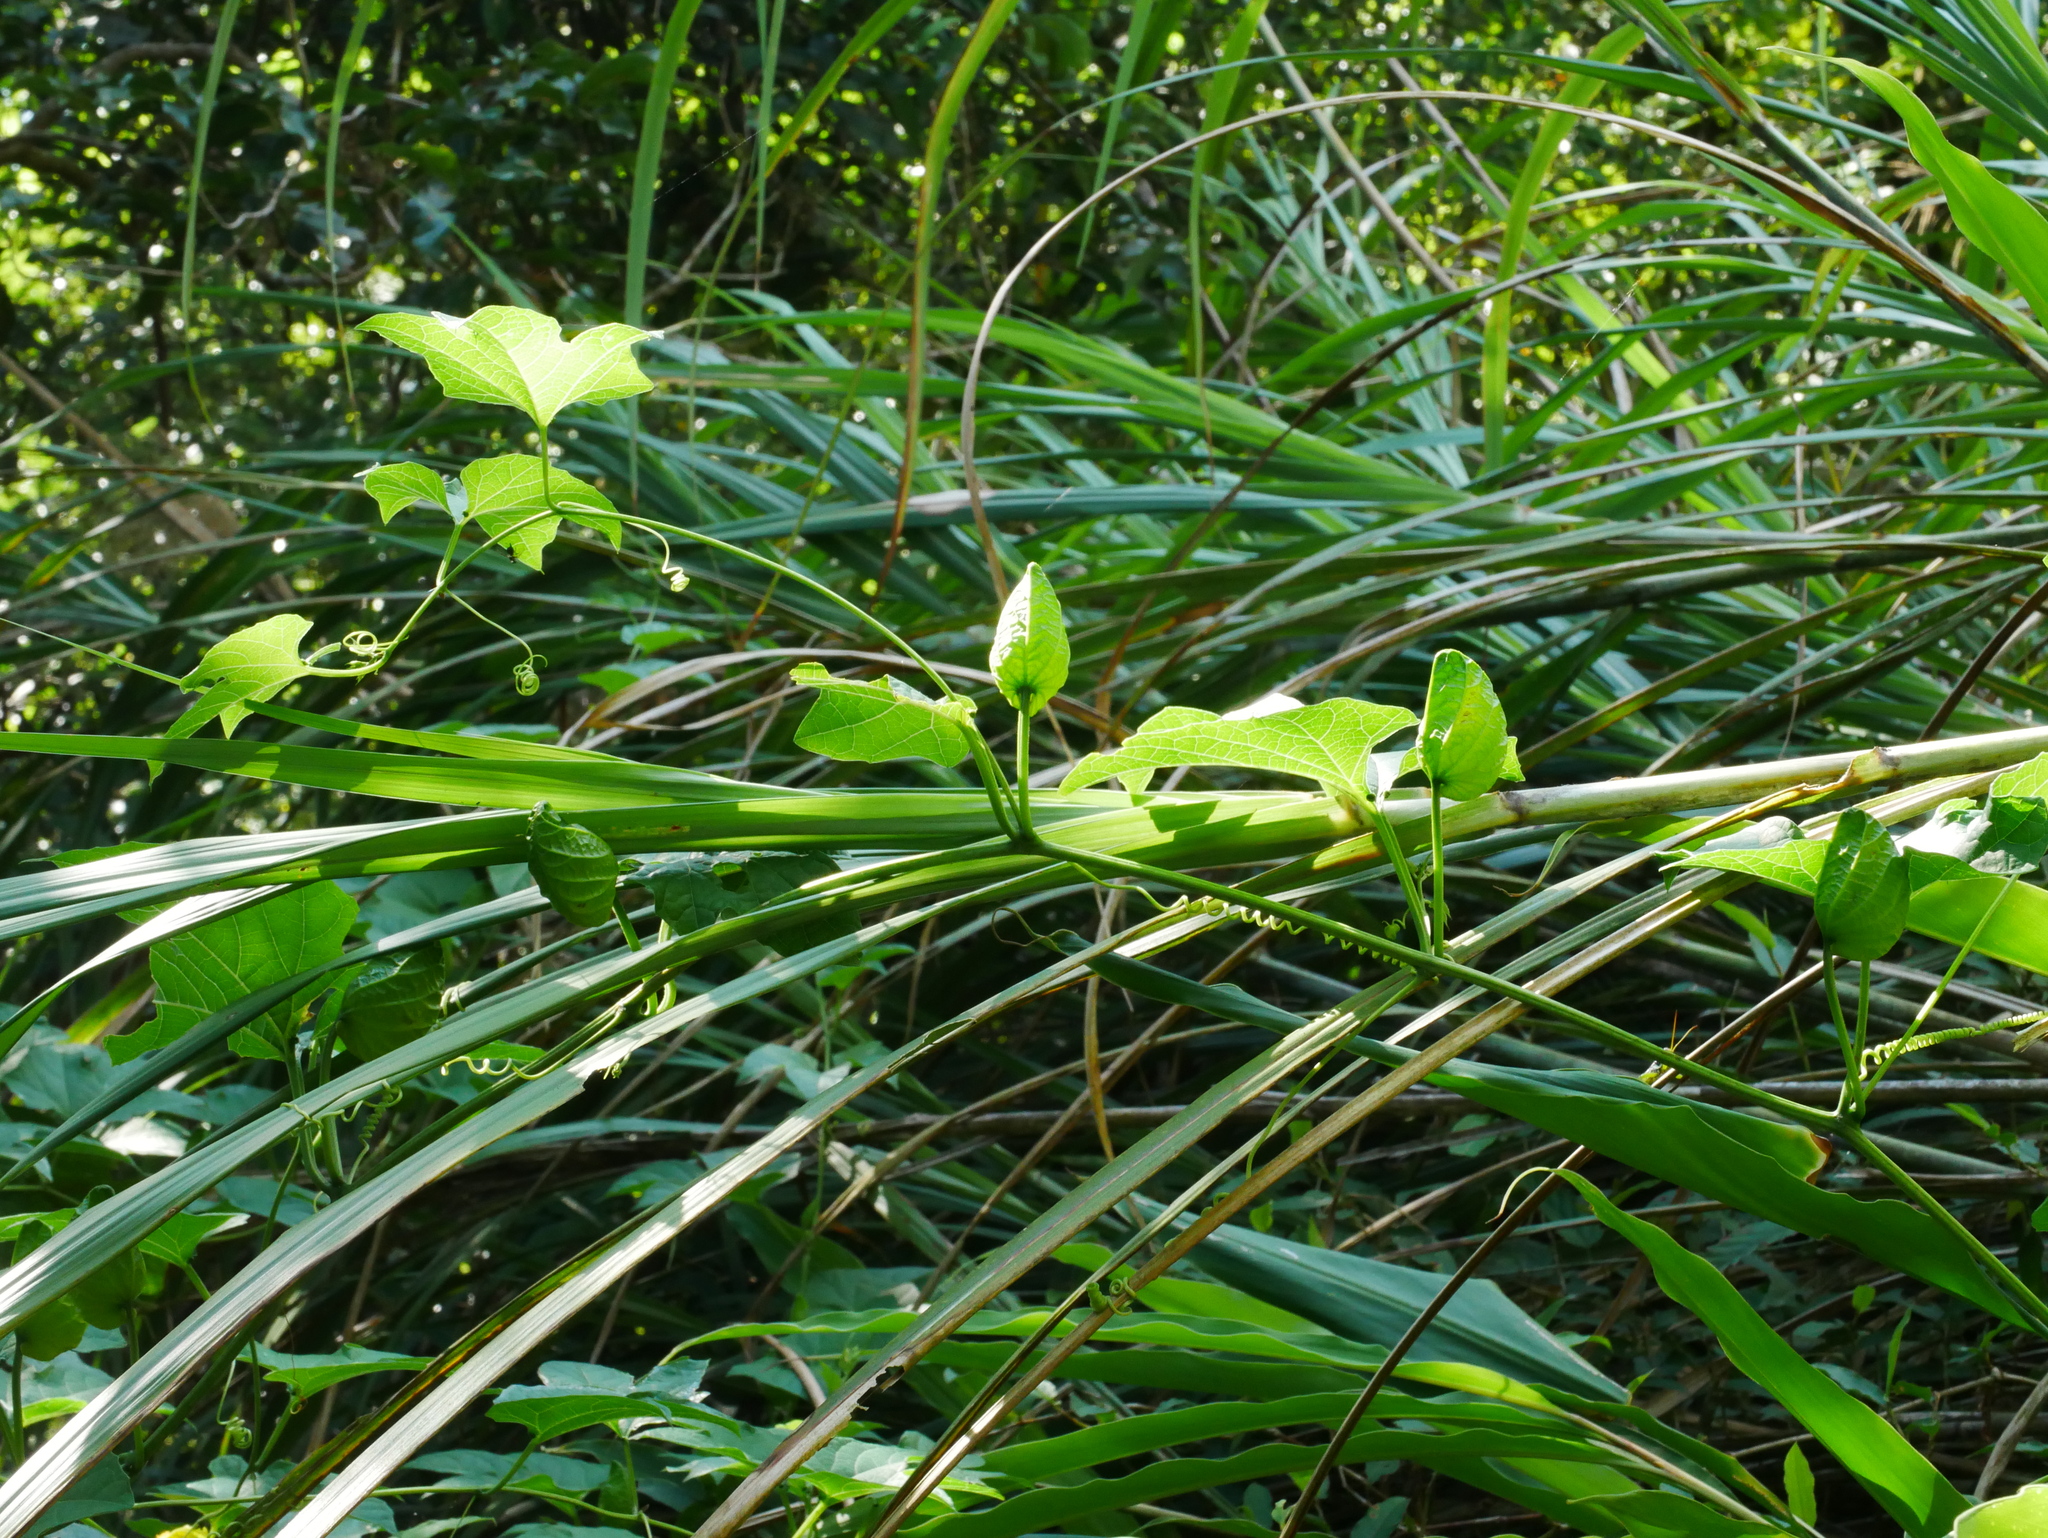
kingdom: Plantae
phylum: Tracheophyta
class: Magnoliopsida
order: Cucurbitales
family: Cucurbitaceae
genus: Momordica
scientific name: Momordica cochinchinensis
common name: Chinese bitter-cucumber
